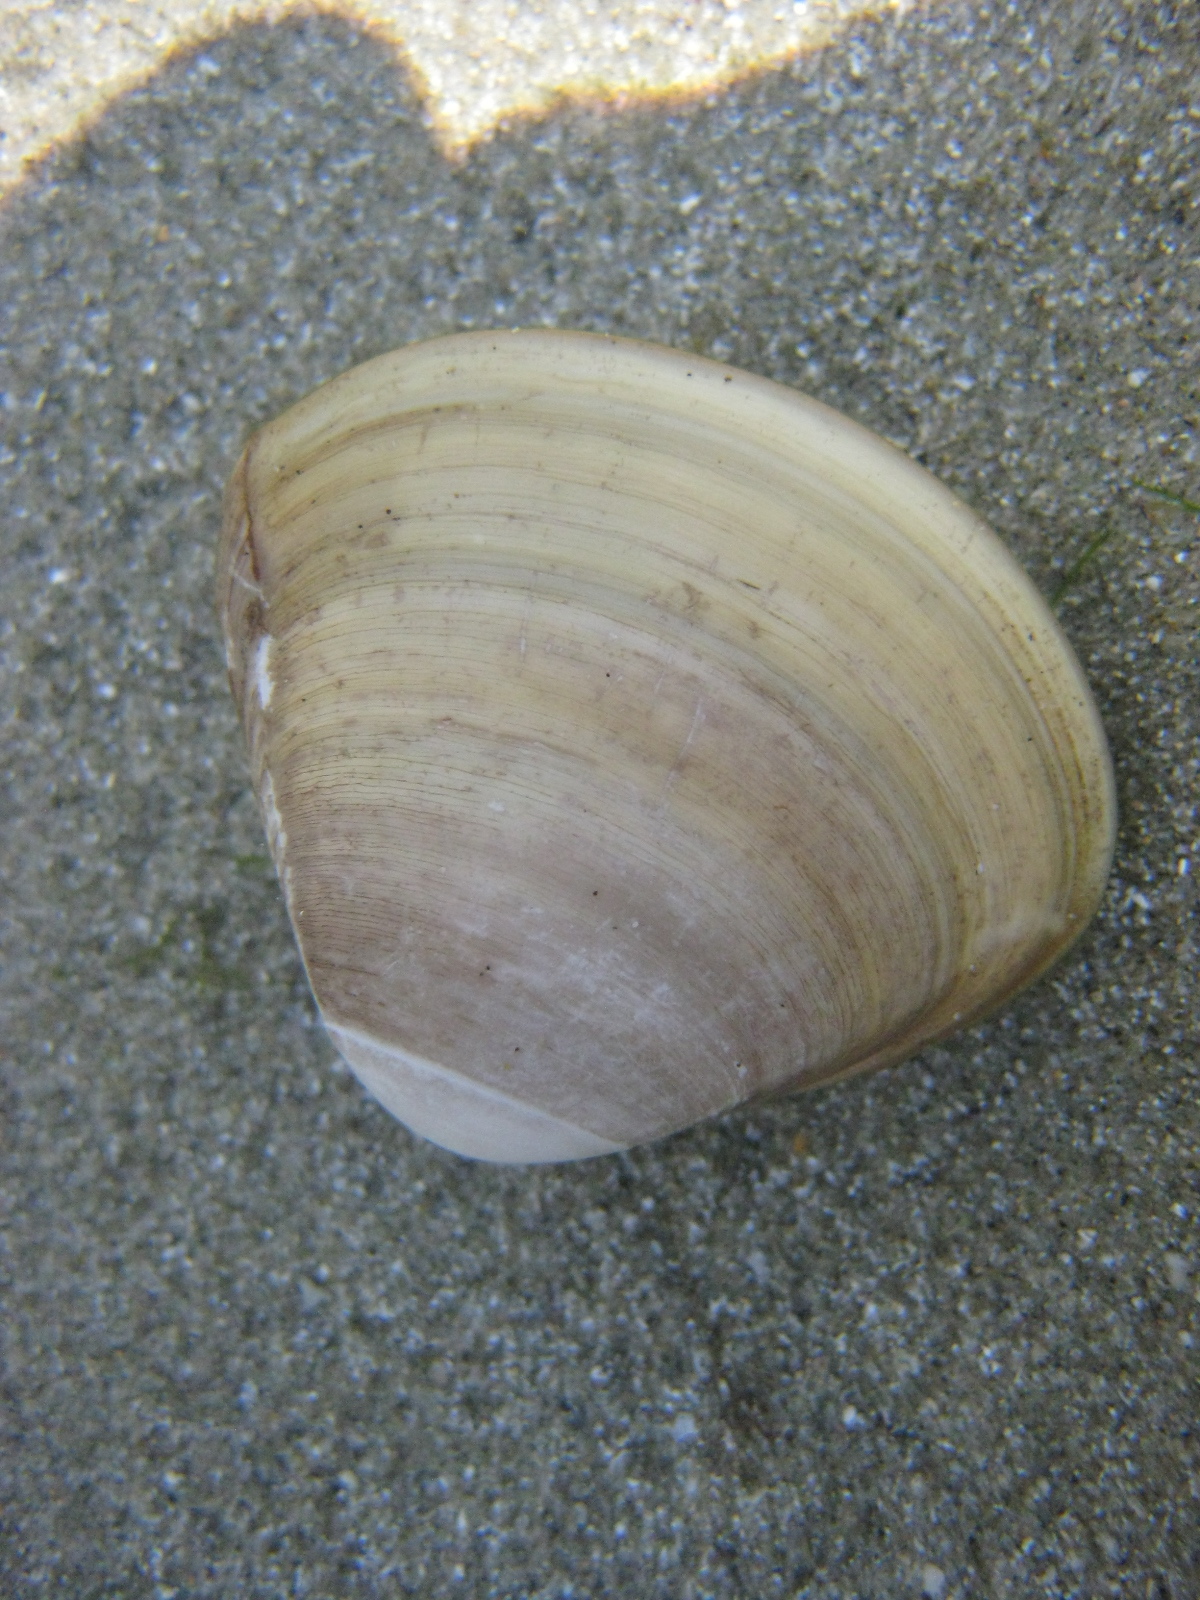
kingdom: Animalia
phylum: Mollusca
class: Bivalvia
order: Venerida
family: Mactridae
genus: Spisula
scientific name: Spisula discors
